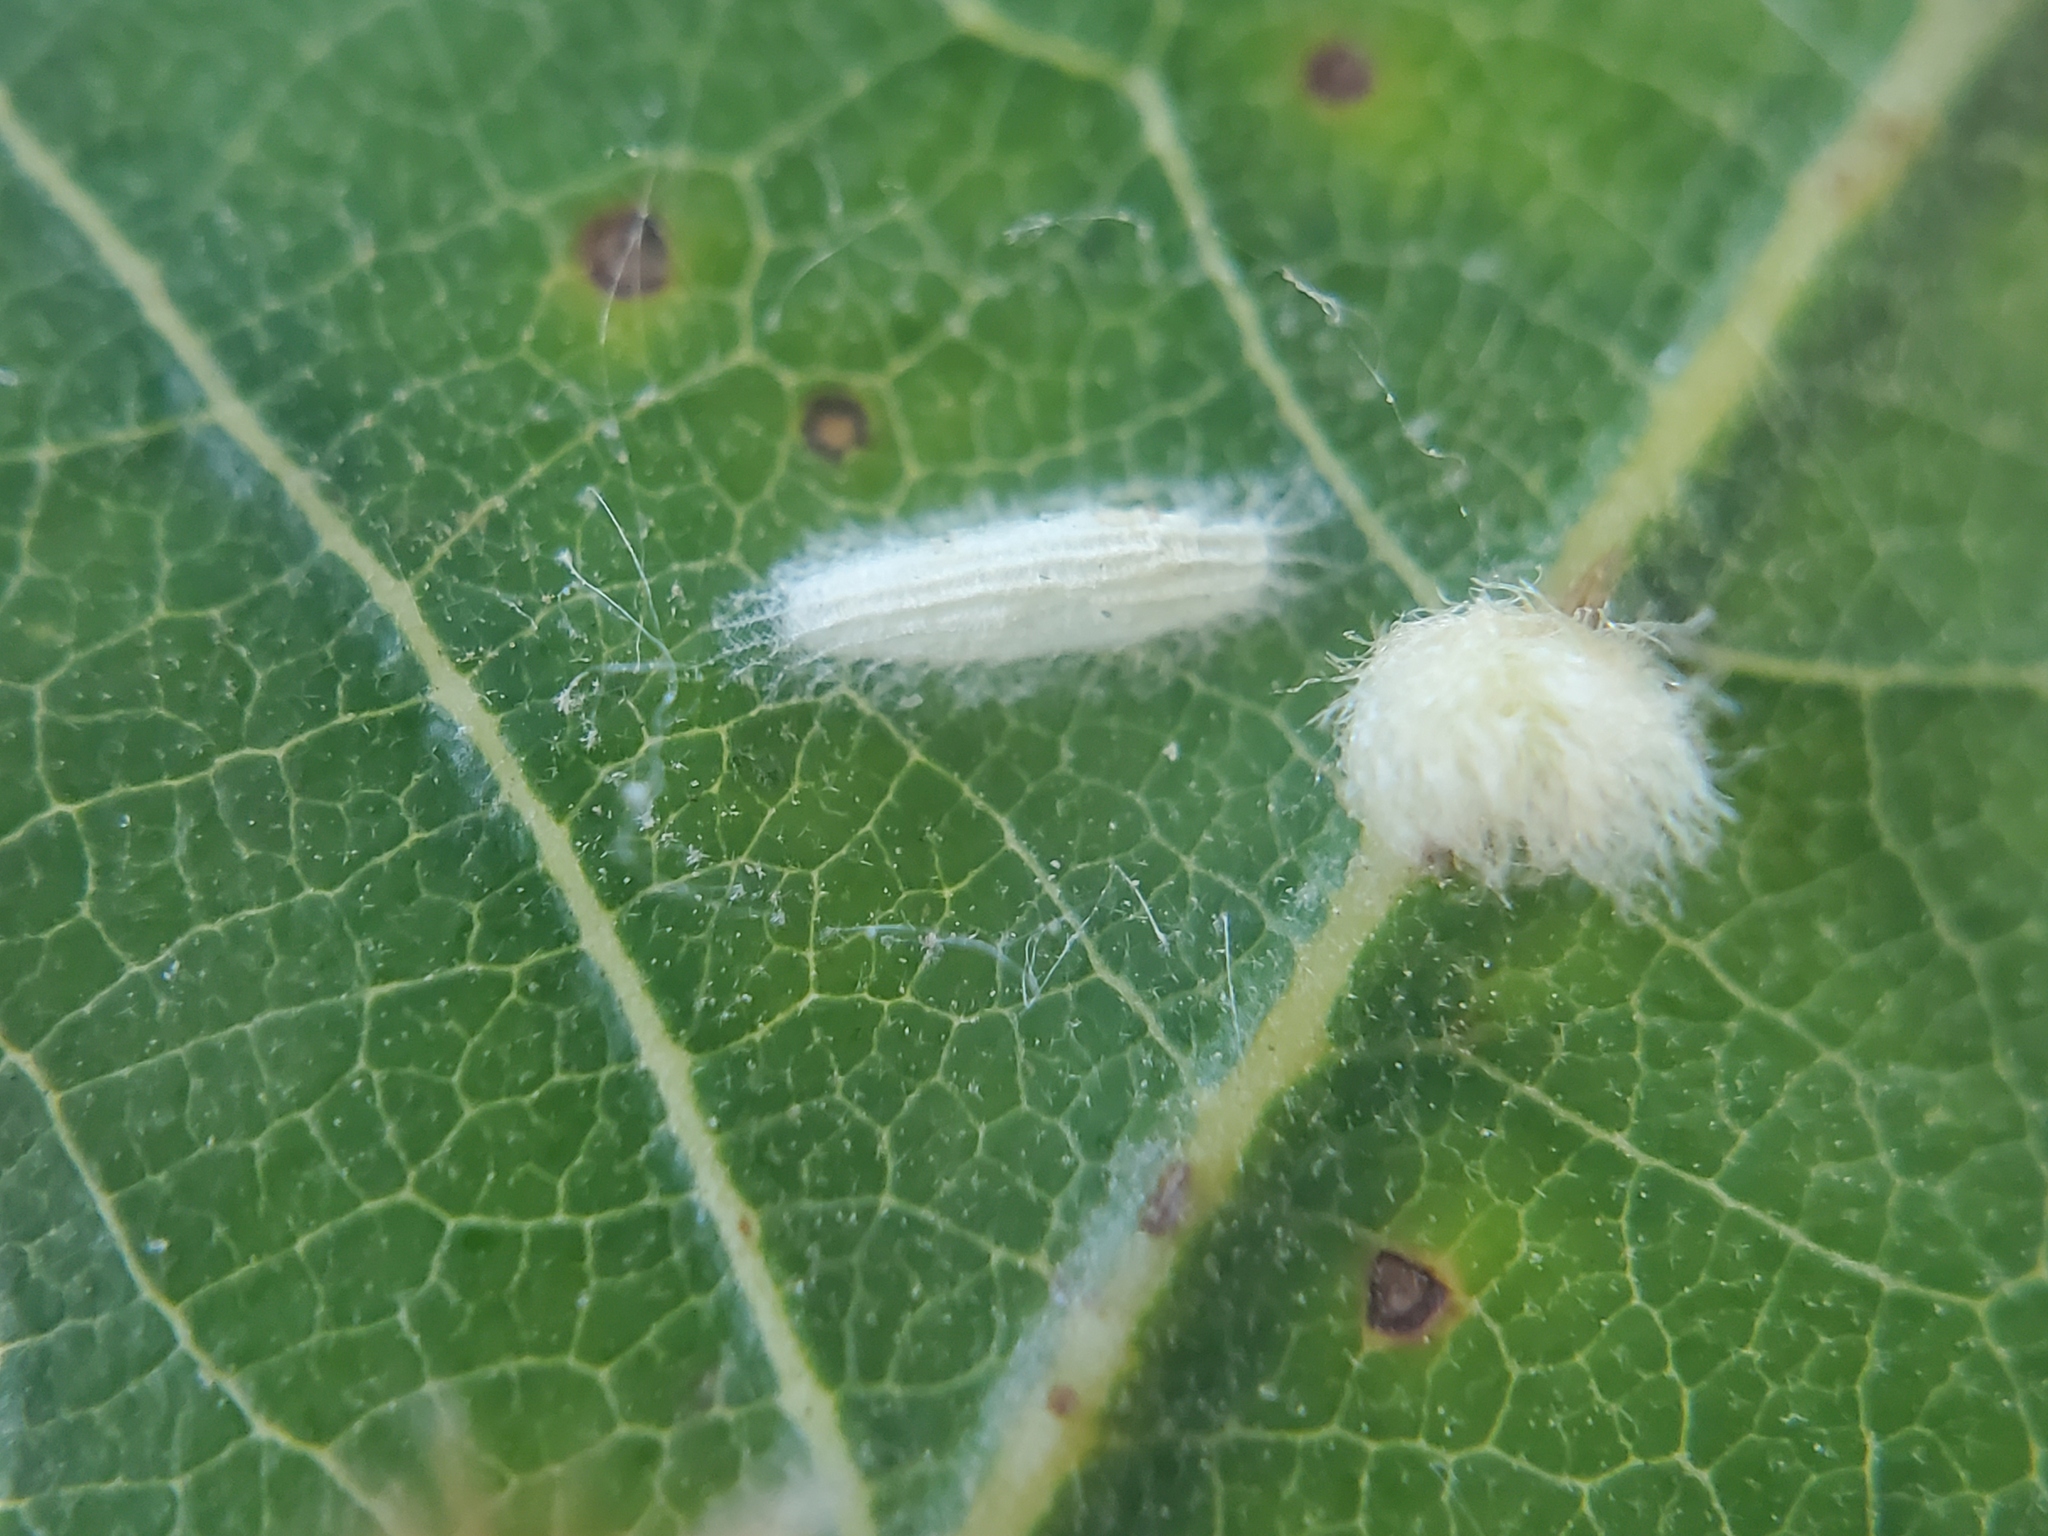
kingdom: Animalia
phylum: Arthropoda
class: Insecta
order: Lepidoptera
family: Bucculatricidae
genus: Bucculatrix
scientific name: Bucculatrix albertiella
